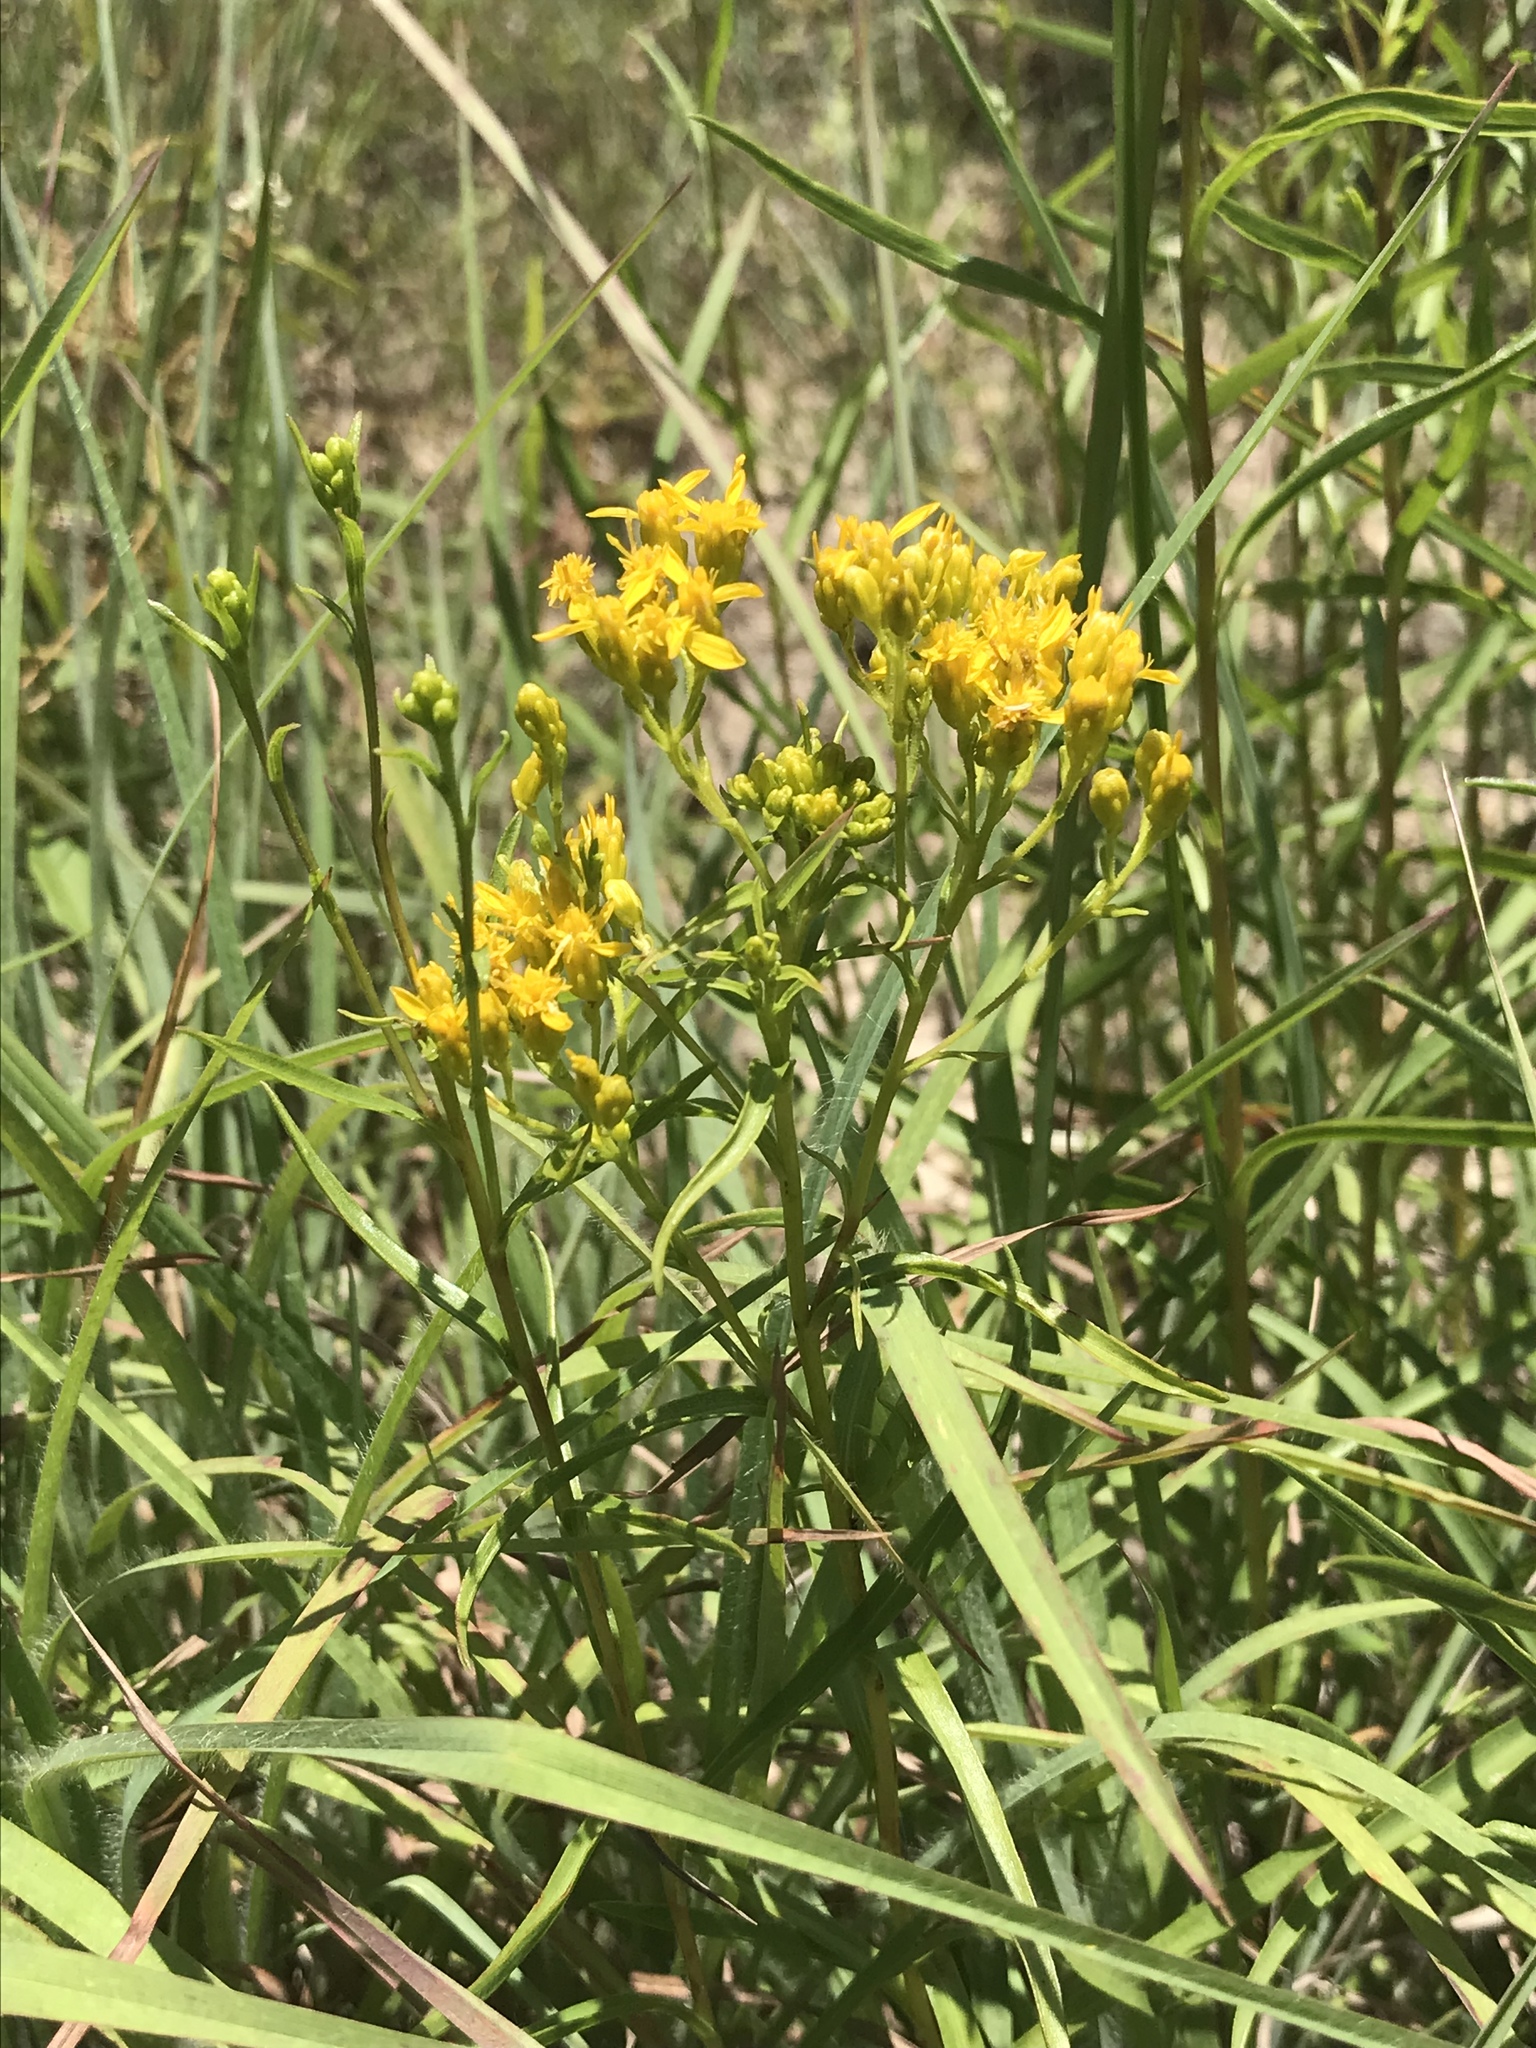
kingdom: Plantae
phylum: Tracheophyta
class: Magnoliopsida
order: Asterales
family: Asteraceae
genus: Euthamia
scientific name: Euthamia leptocephala
